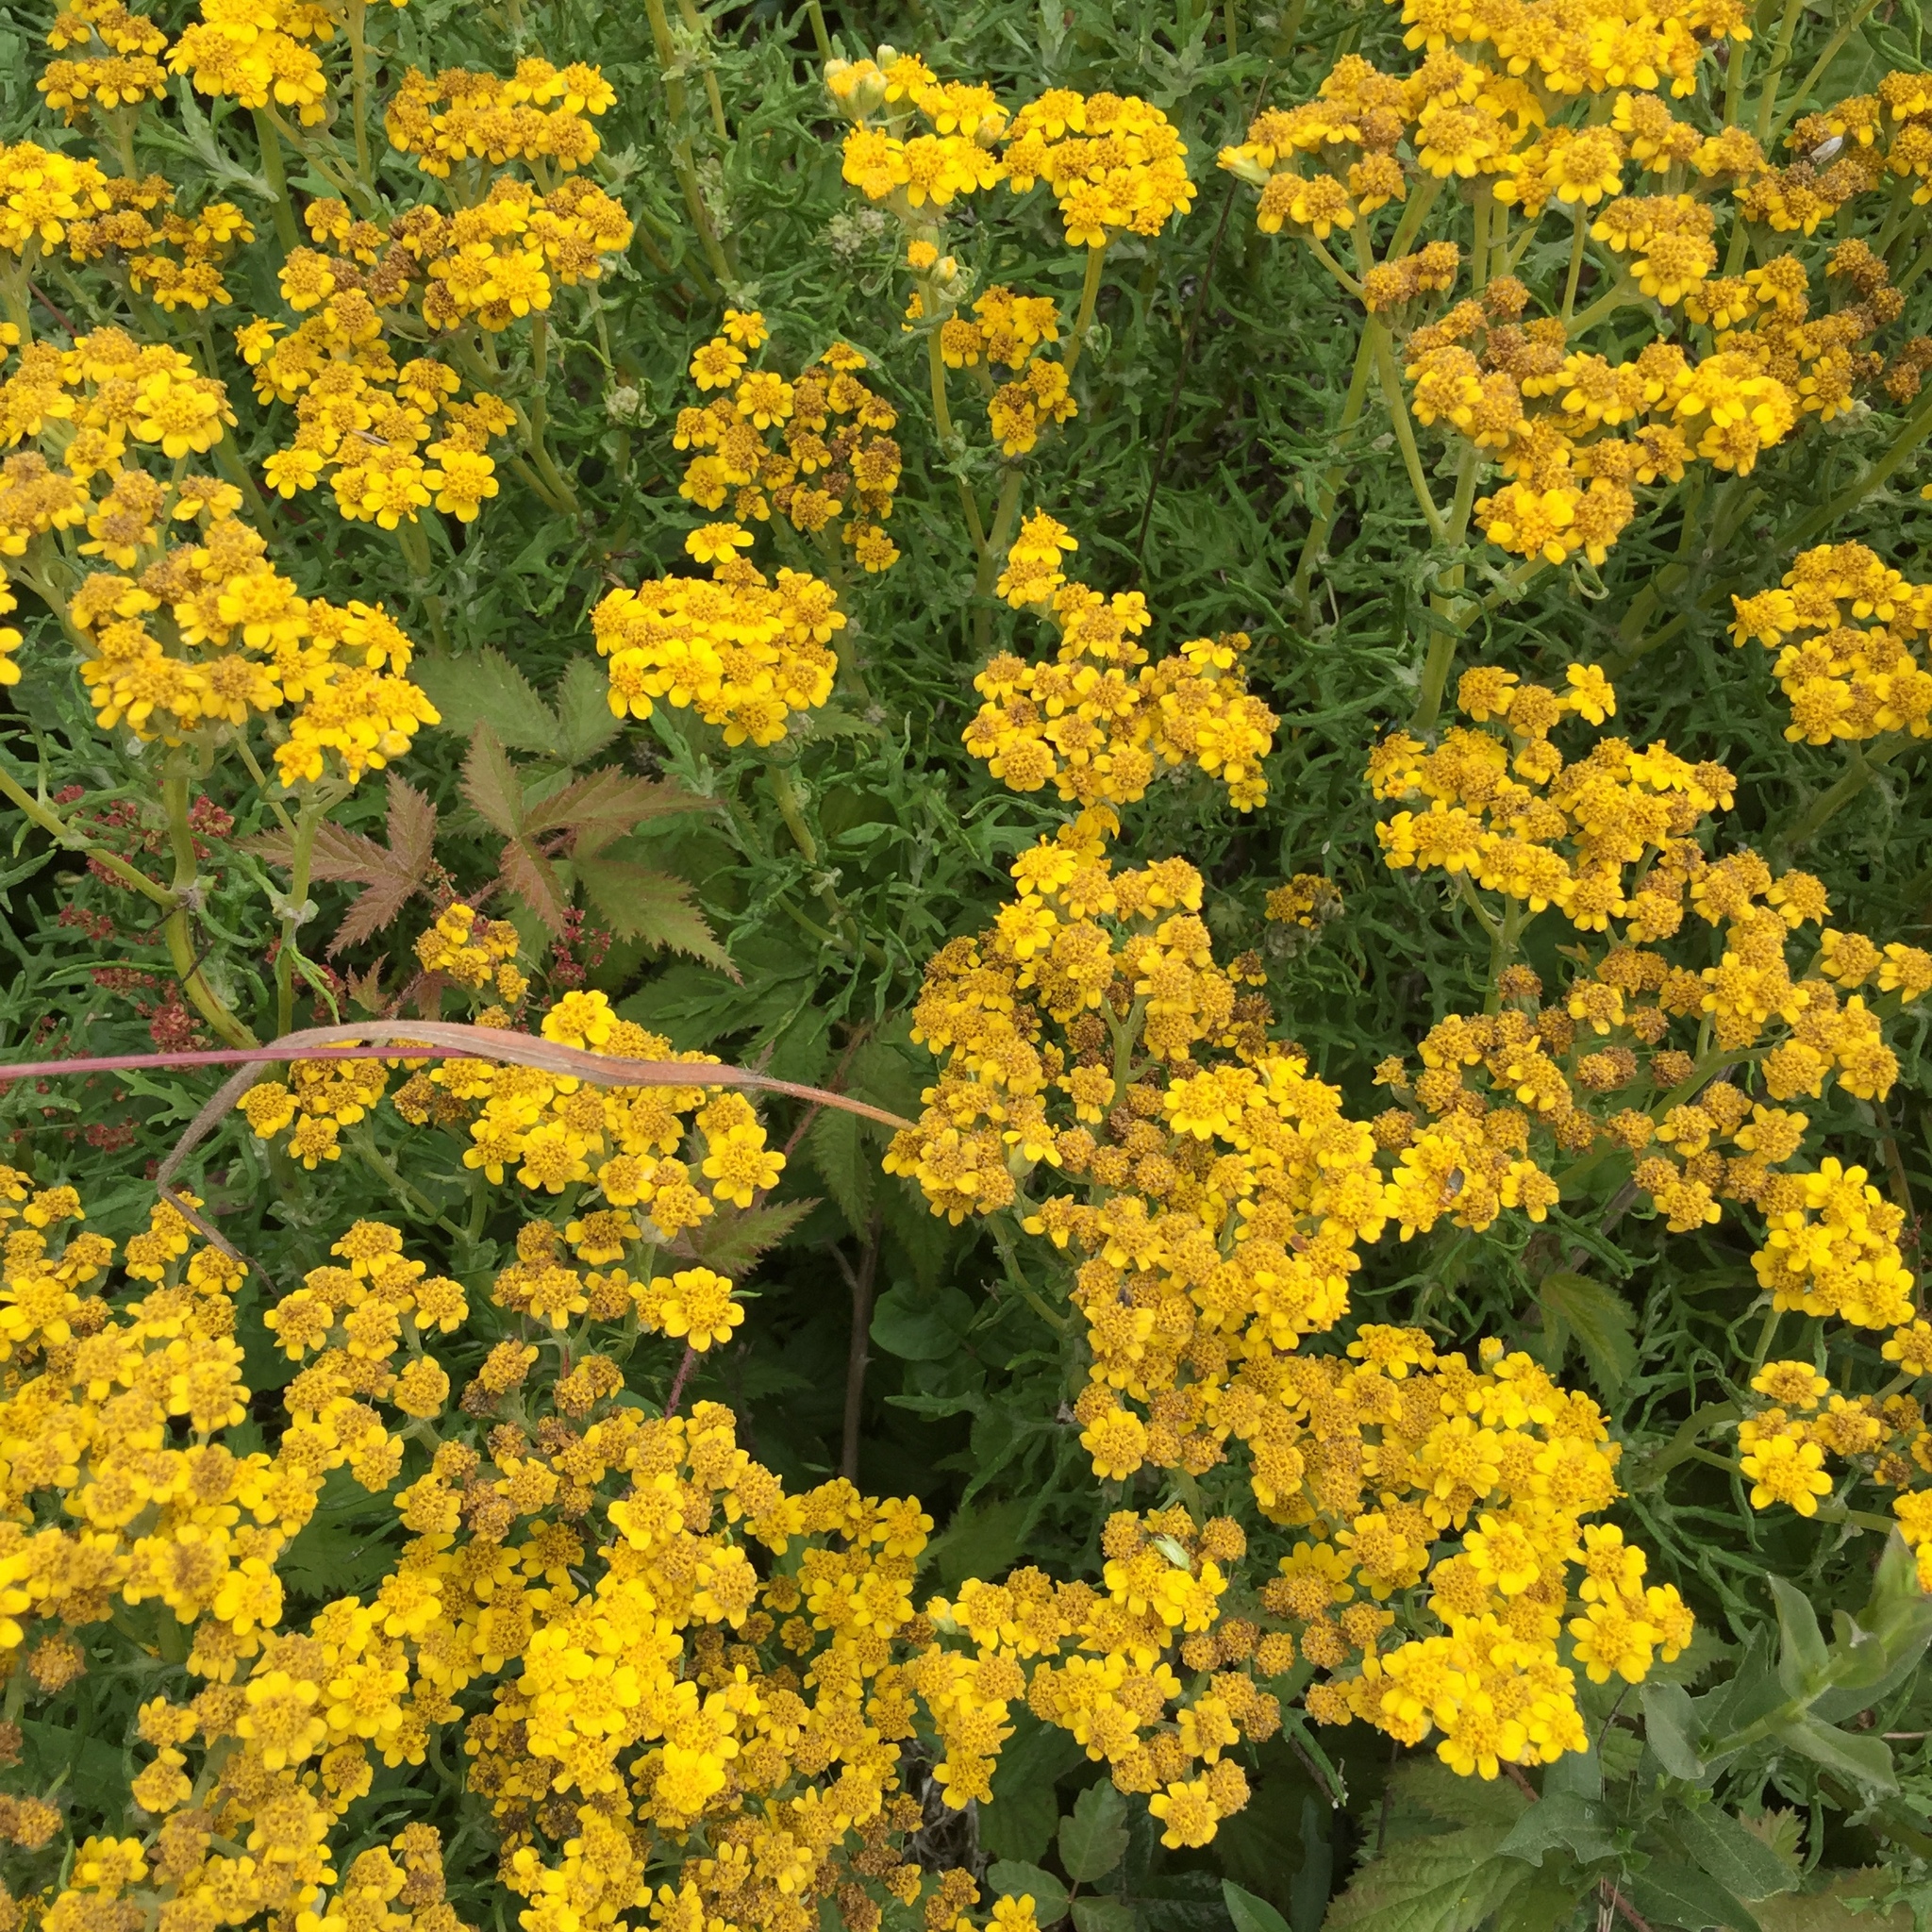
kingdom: Plantae
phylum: Tracheophyta
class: Magnoliopsida
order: Asterales
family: Asteraceae
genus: Eriophyllum
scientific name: Eriophyllum staechadifolium
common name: Lizardtail
